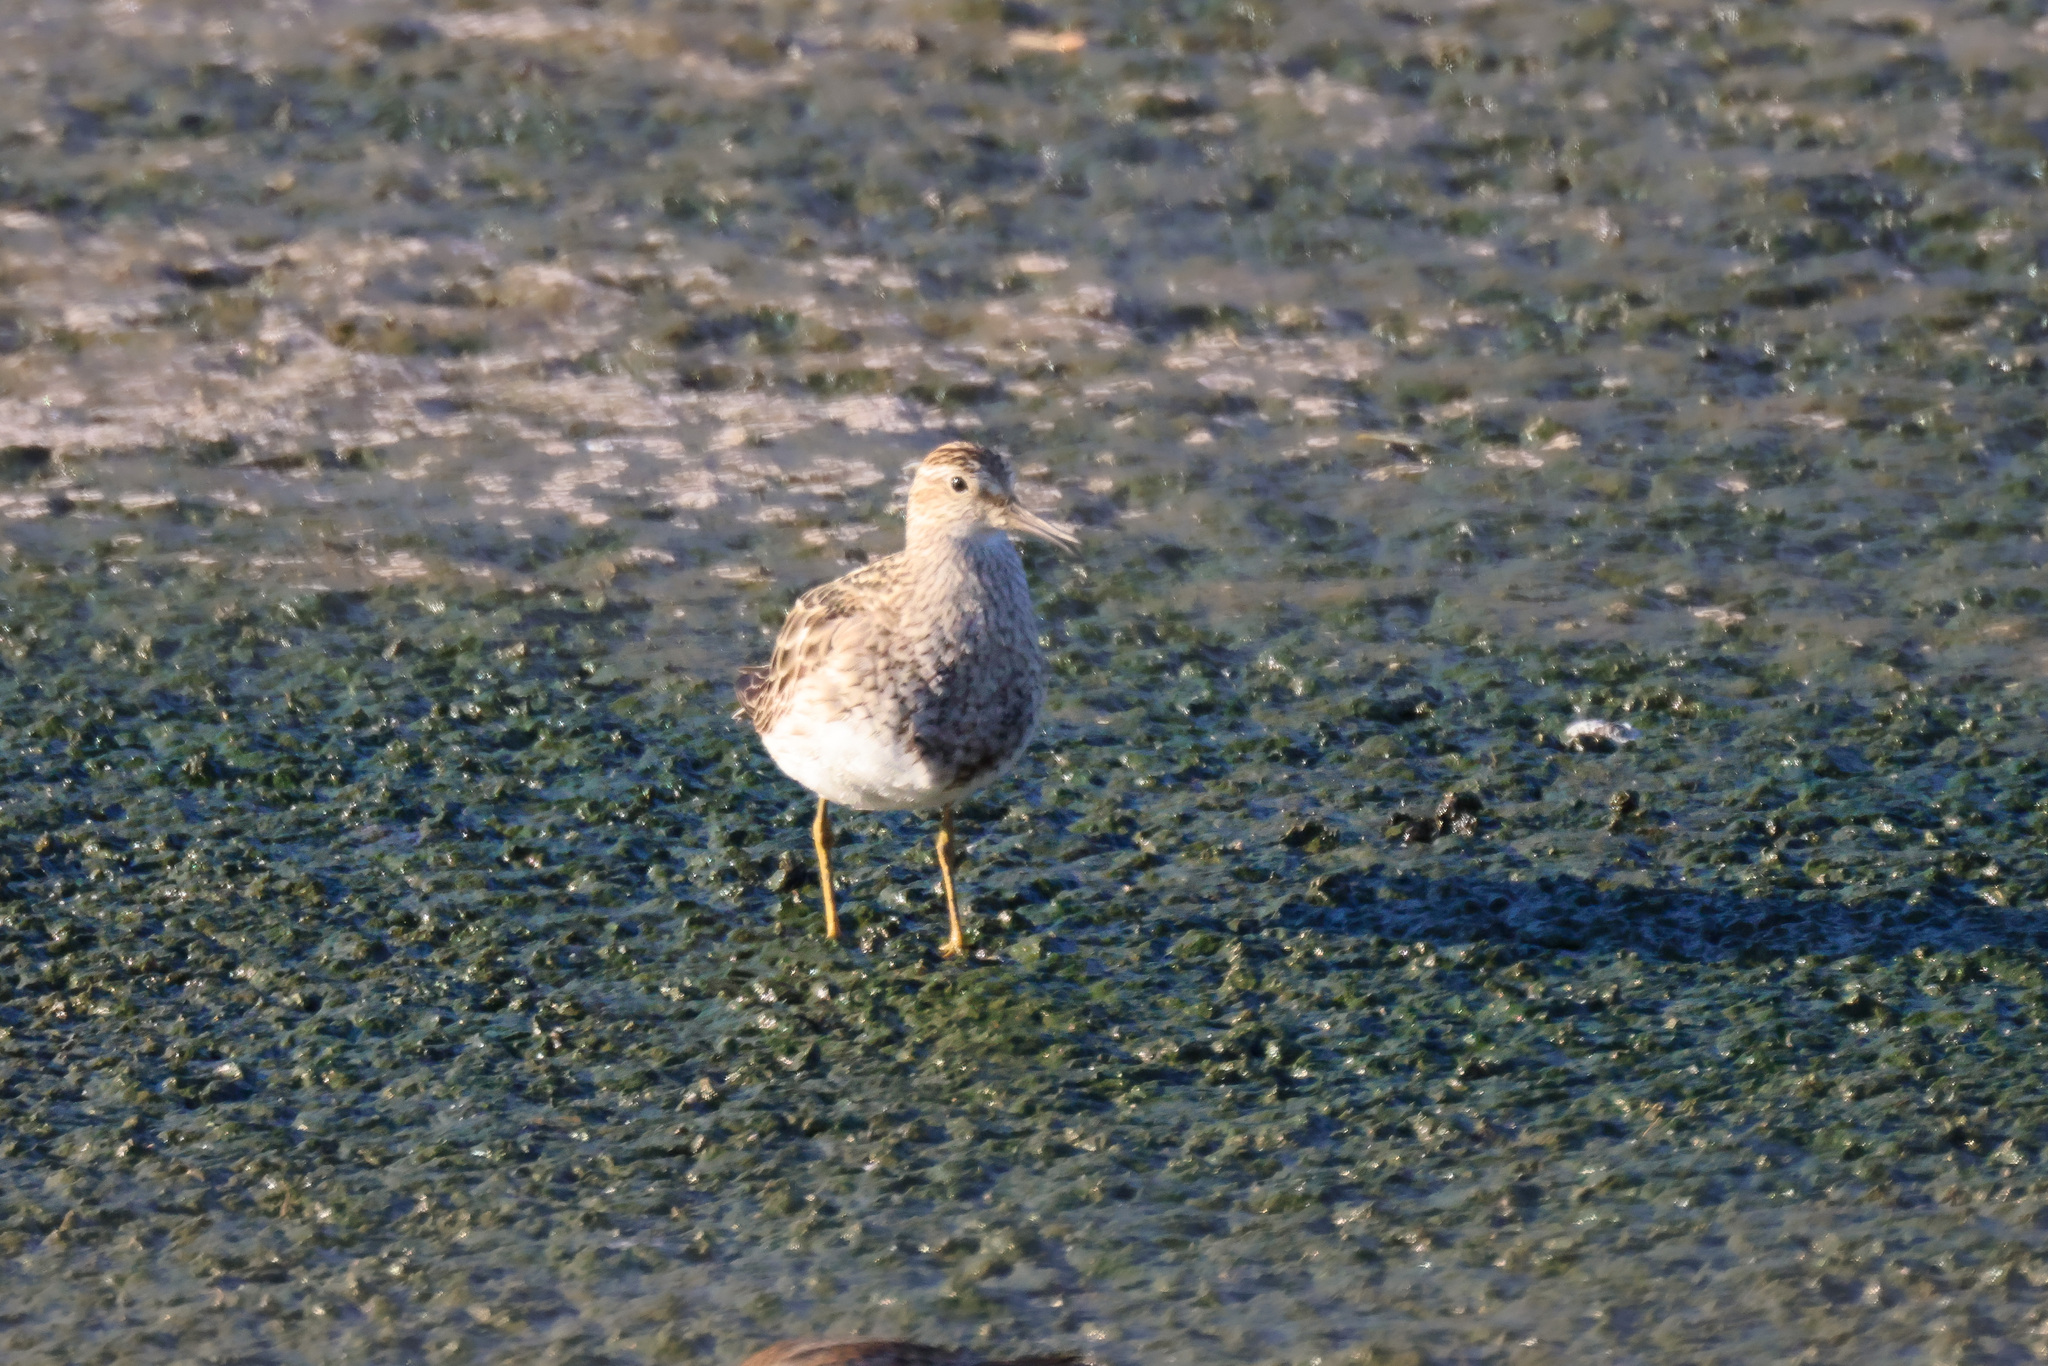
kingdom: Animalia
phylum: Chordata
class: Aves
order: Charadriiformes
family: Scolopacidae
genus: Calidris
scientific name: Calidris melanotos
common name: Pectoral sandpiper
